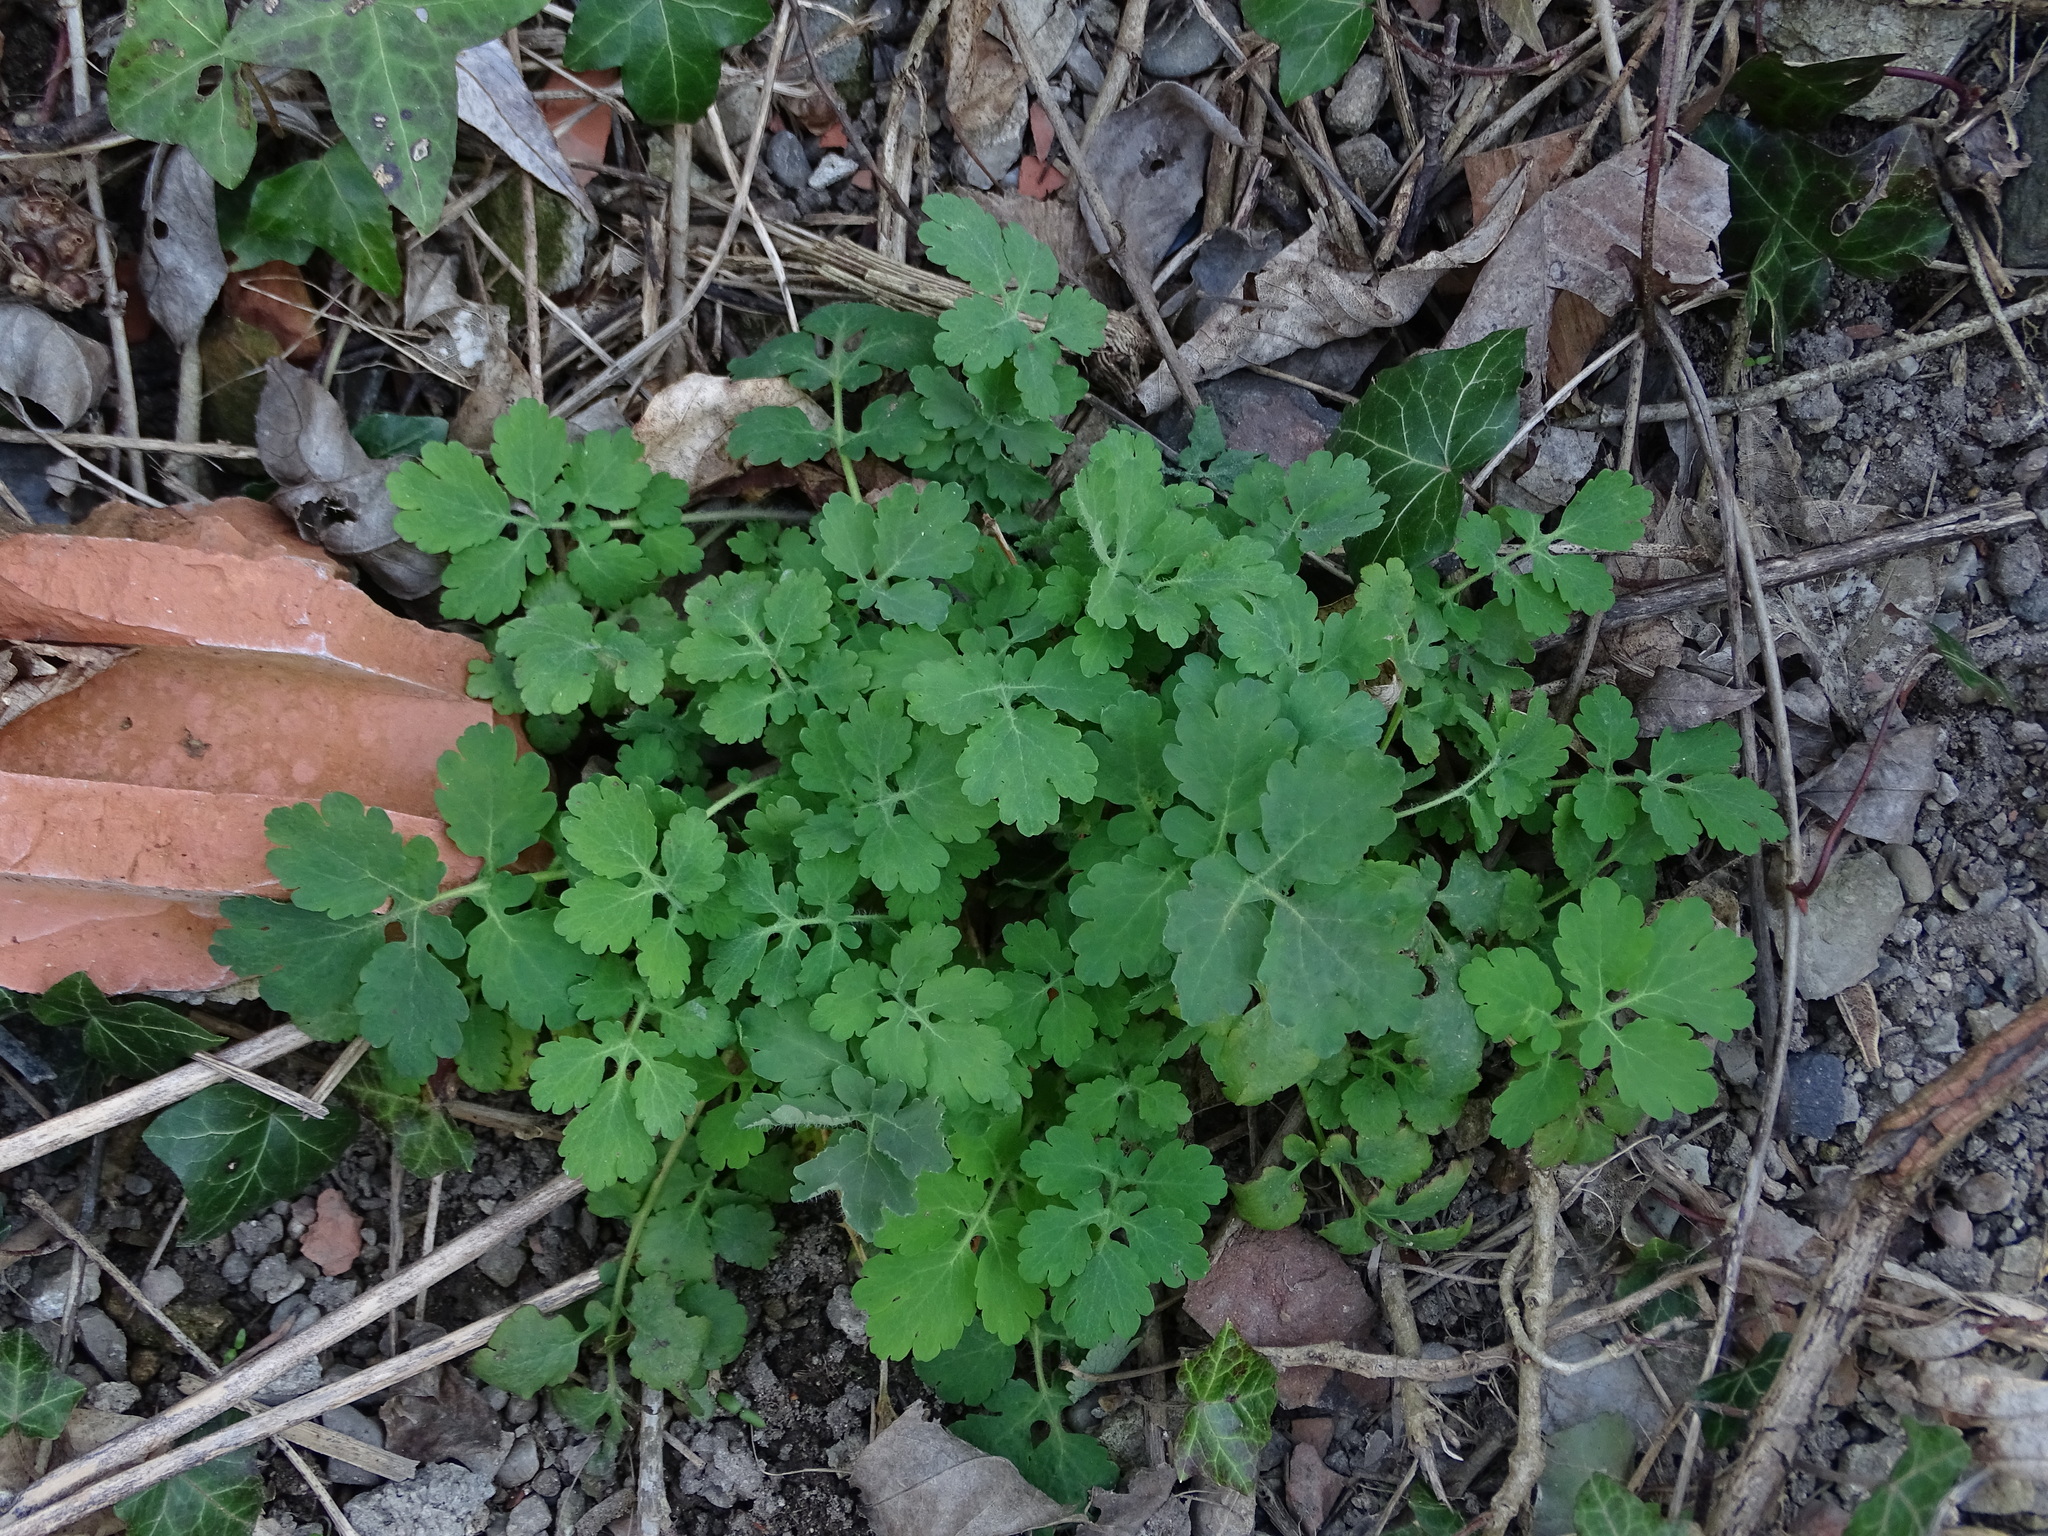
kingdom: Plantae
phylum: Tracheophyta
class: Magnoliopsida
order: Ranunculales
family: Papaveraceae
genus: Chelidonium
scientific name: Chelidonium majus
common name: Greater celandine
